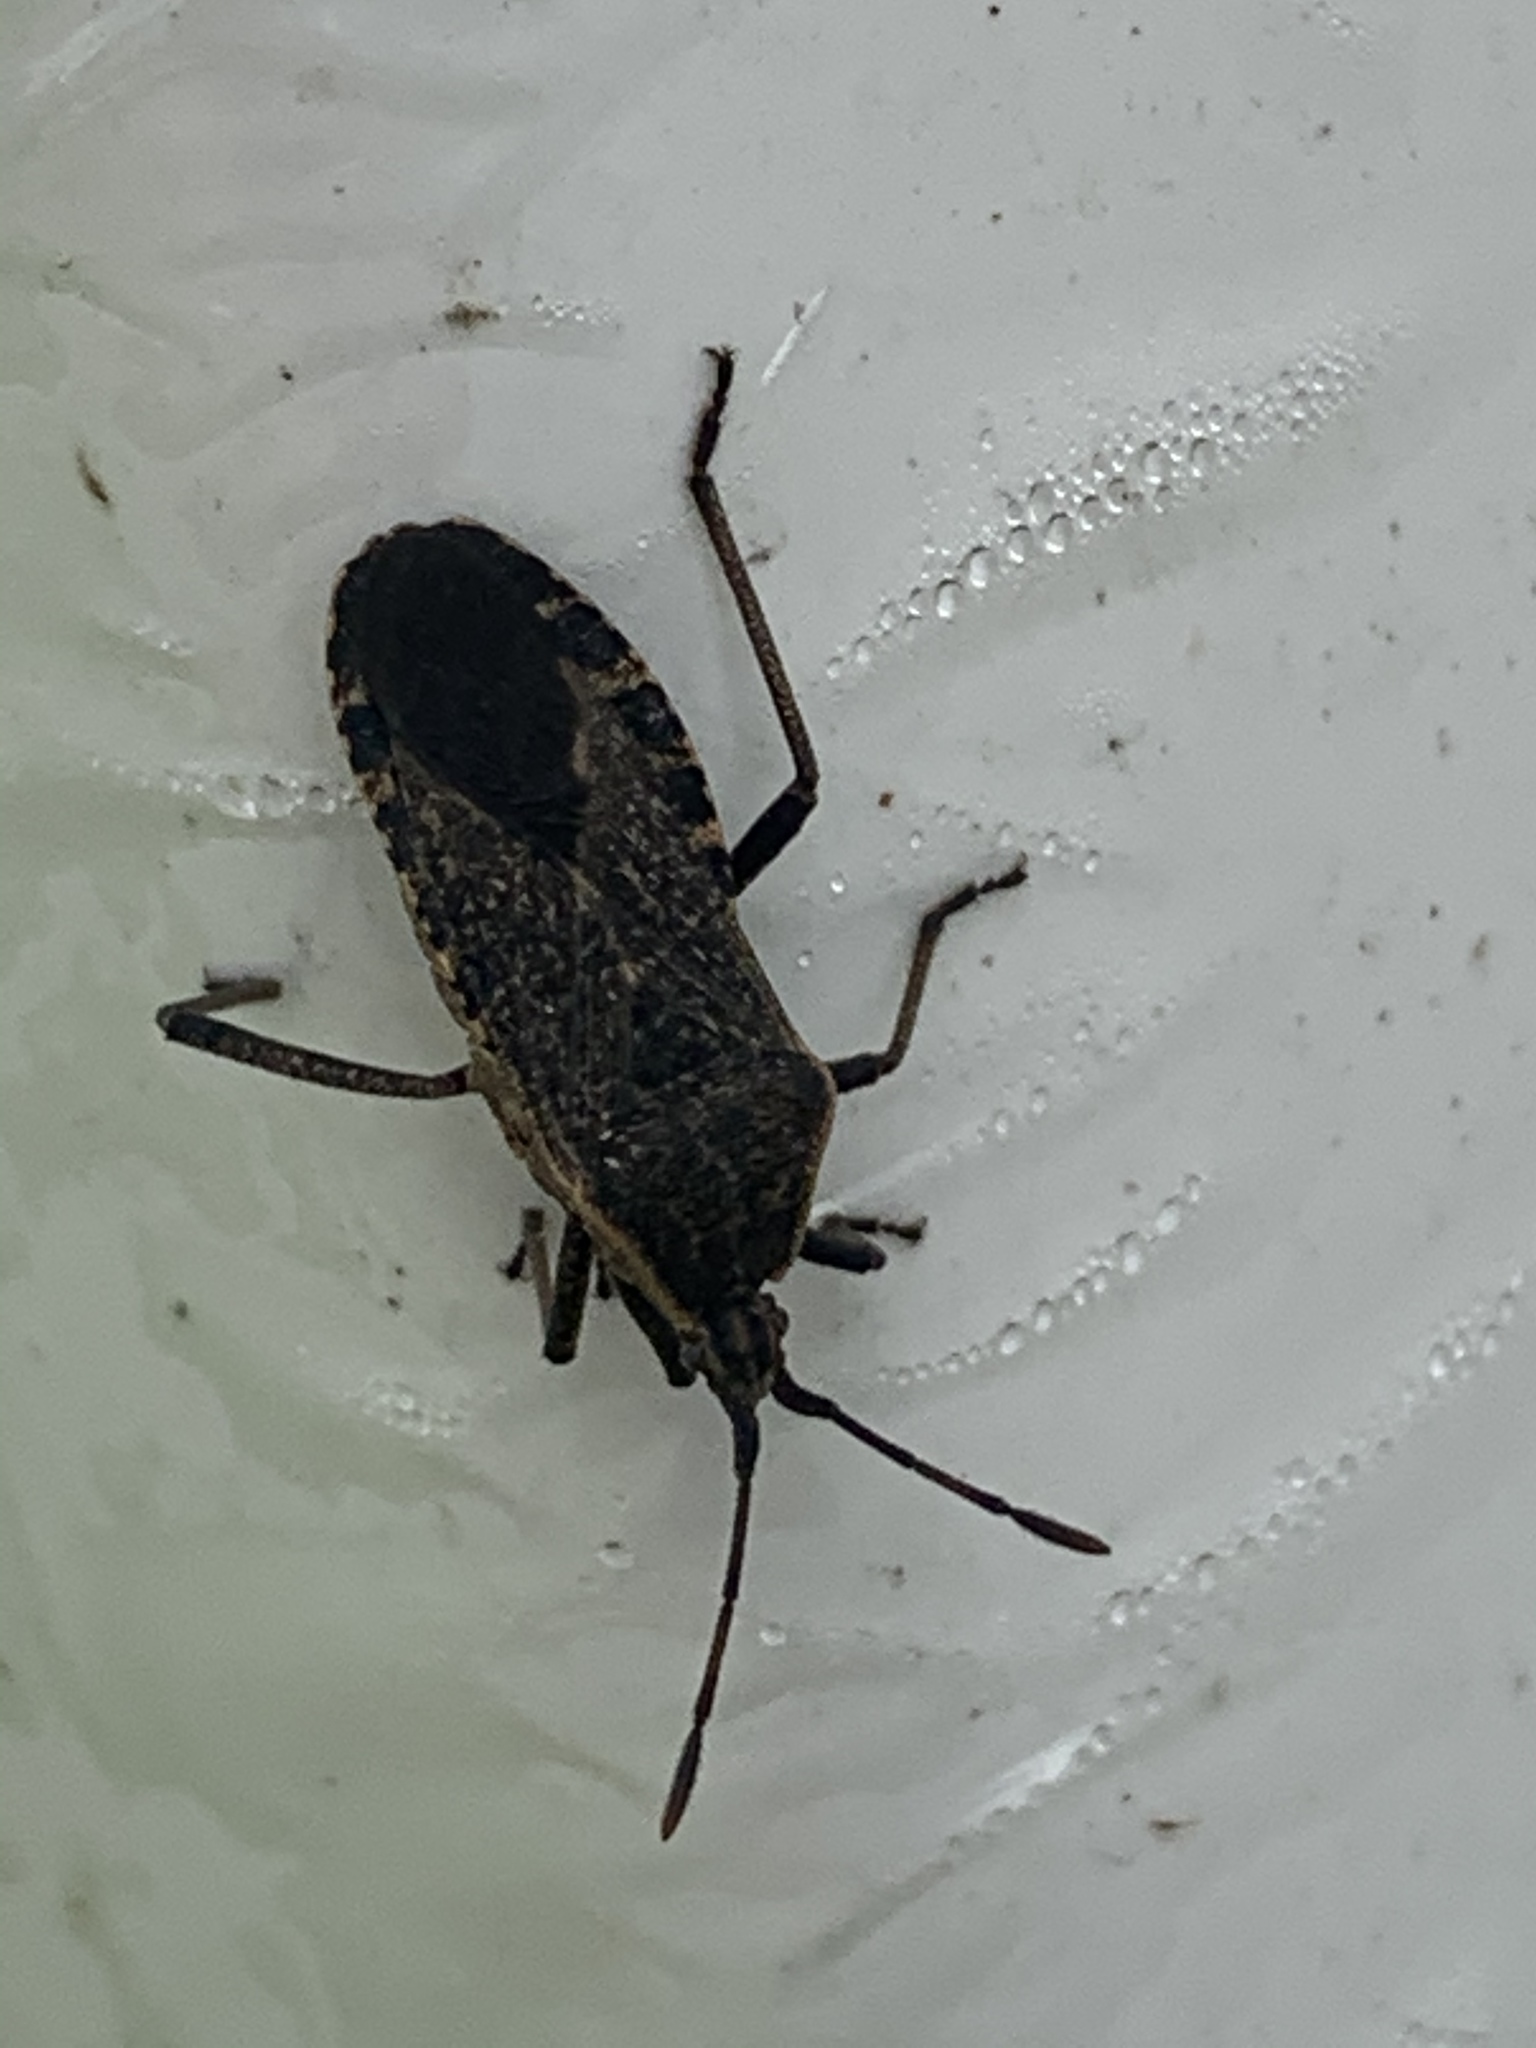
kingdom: Animalia
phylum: Arthropoda
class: Insecta
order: Hemiptera
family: Coreidae
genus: Anasa
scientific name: Anasa tristis
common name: Squash bug
